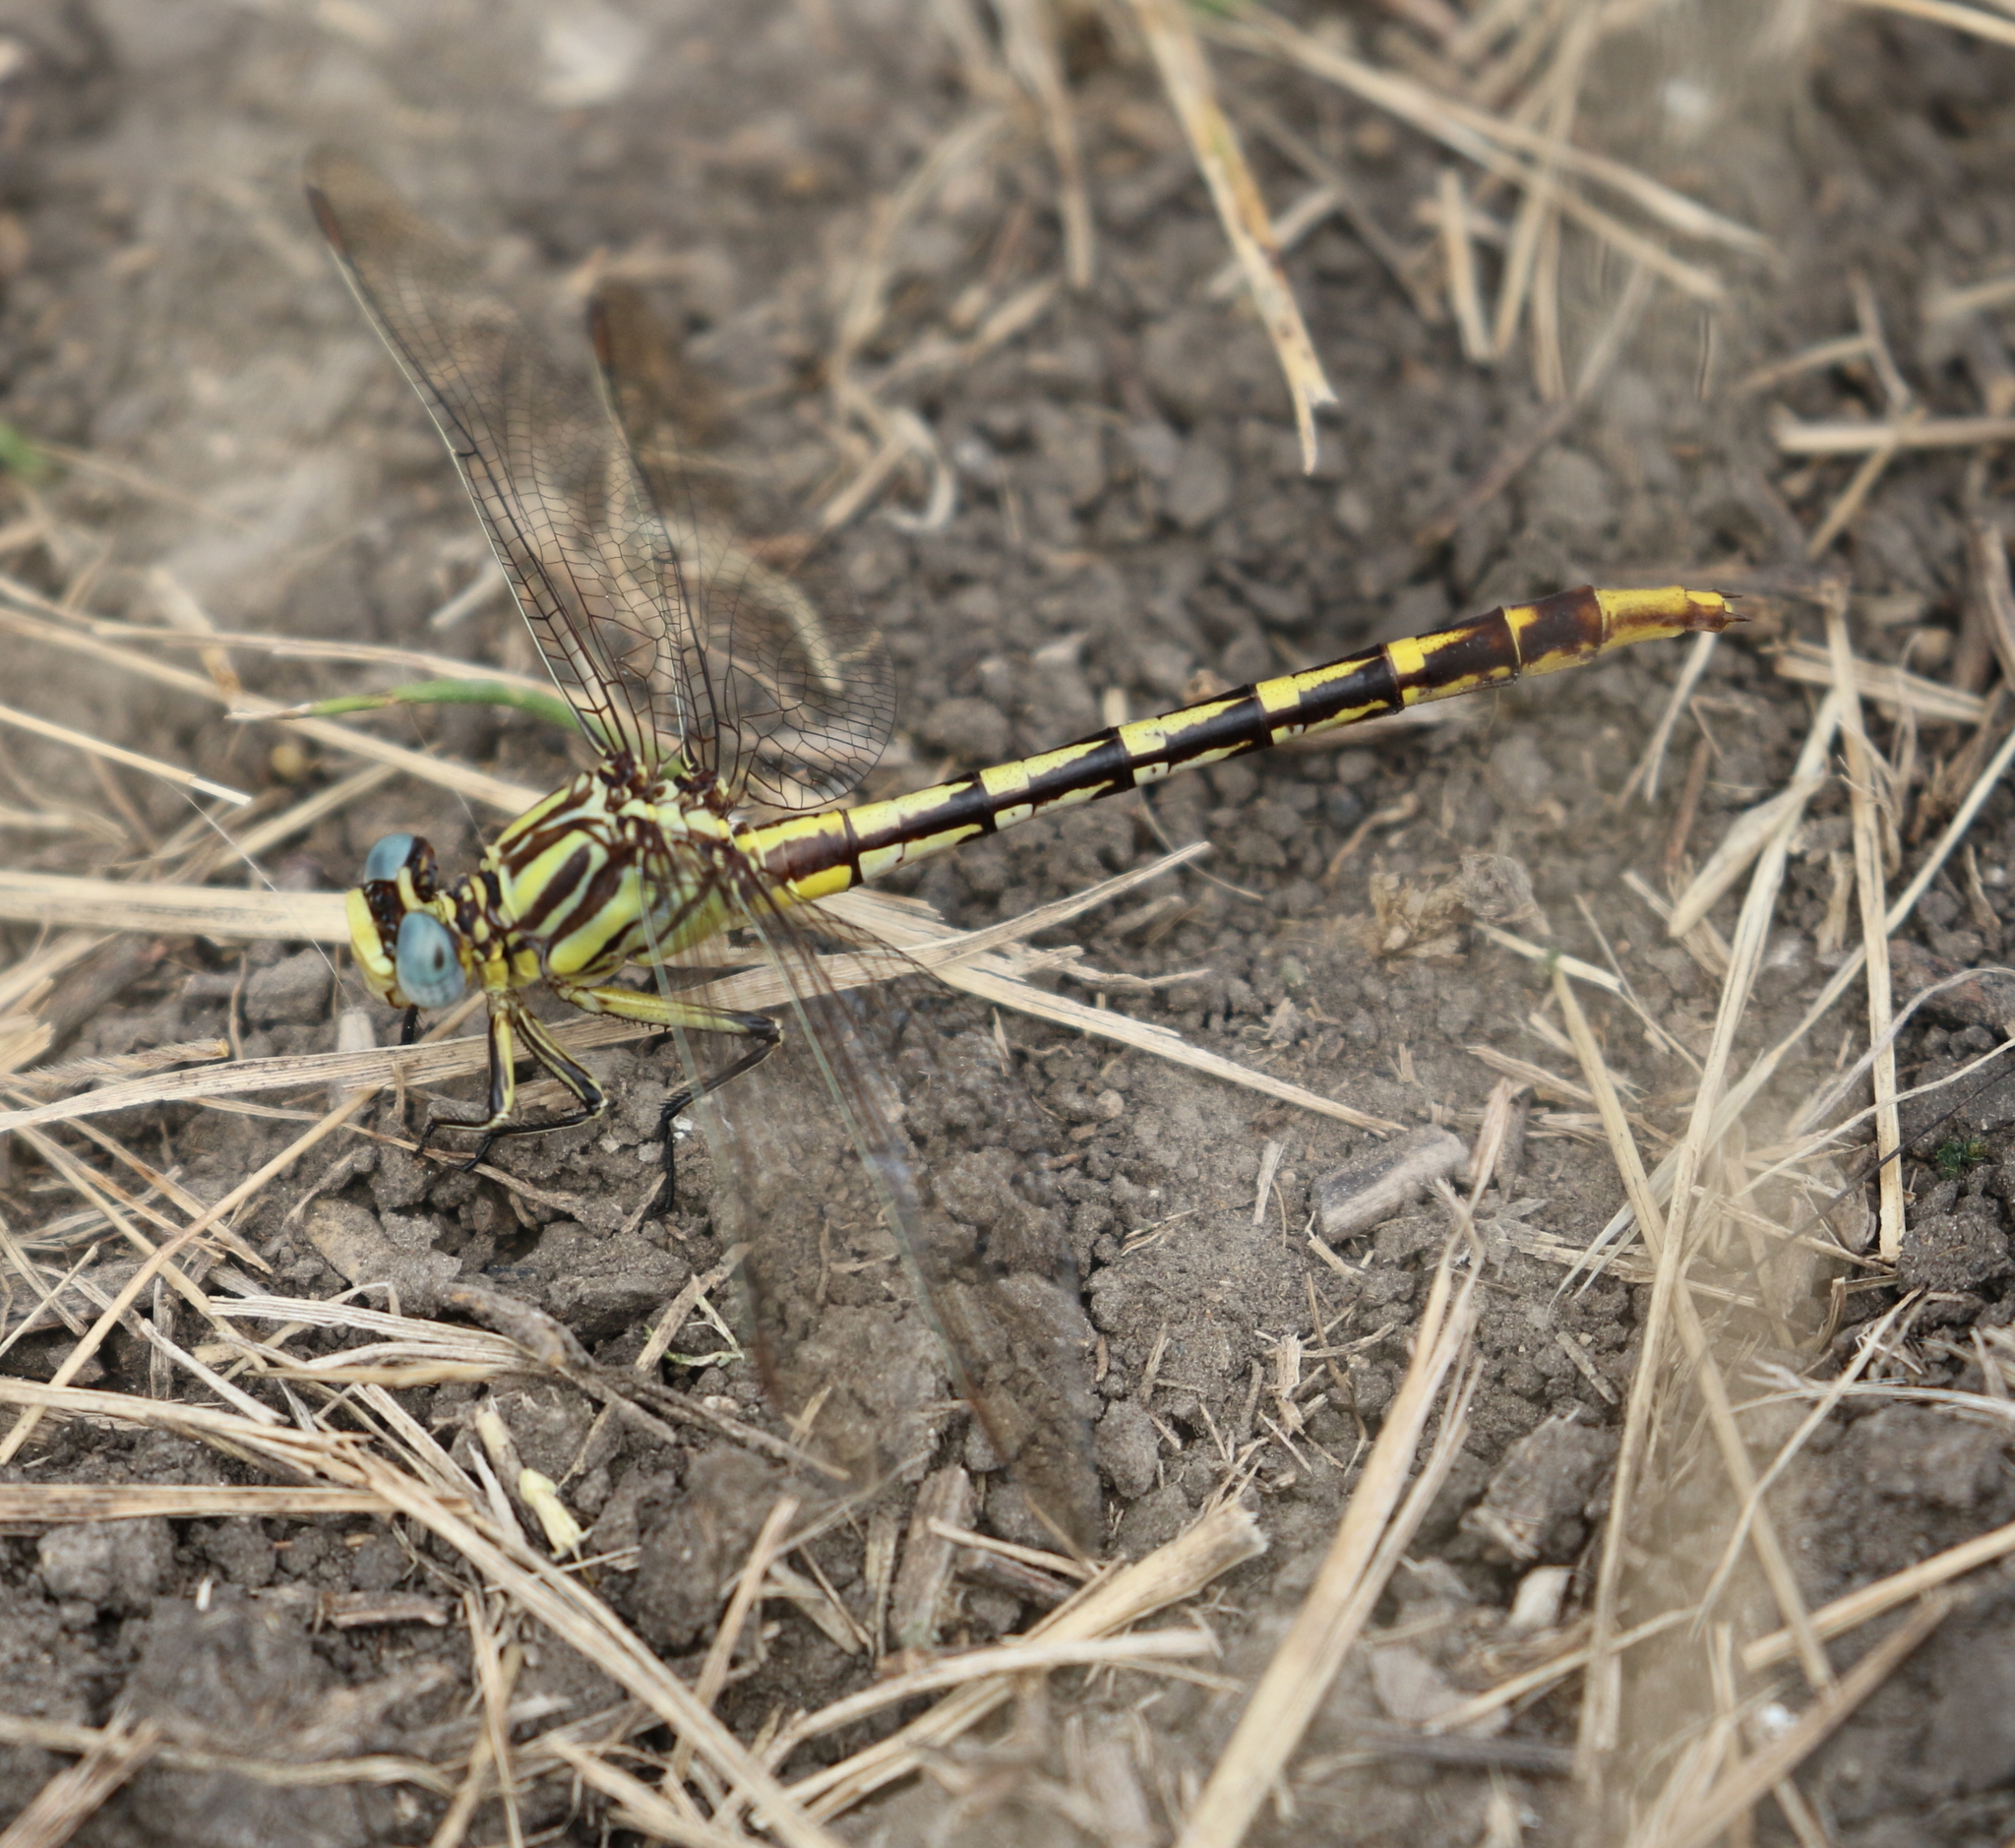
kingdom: Animalia
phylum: Arthropoda
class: Insecta
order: Odonata
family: Gomphidae
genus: Phanogomphus
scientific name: Phanogomphus militaris
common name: Sulphur-tipped clubtail
